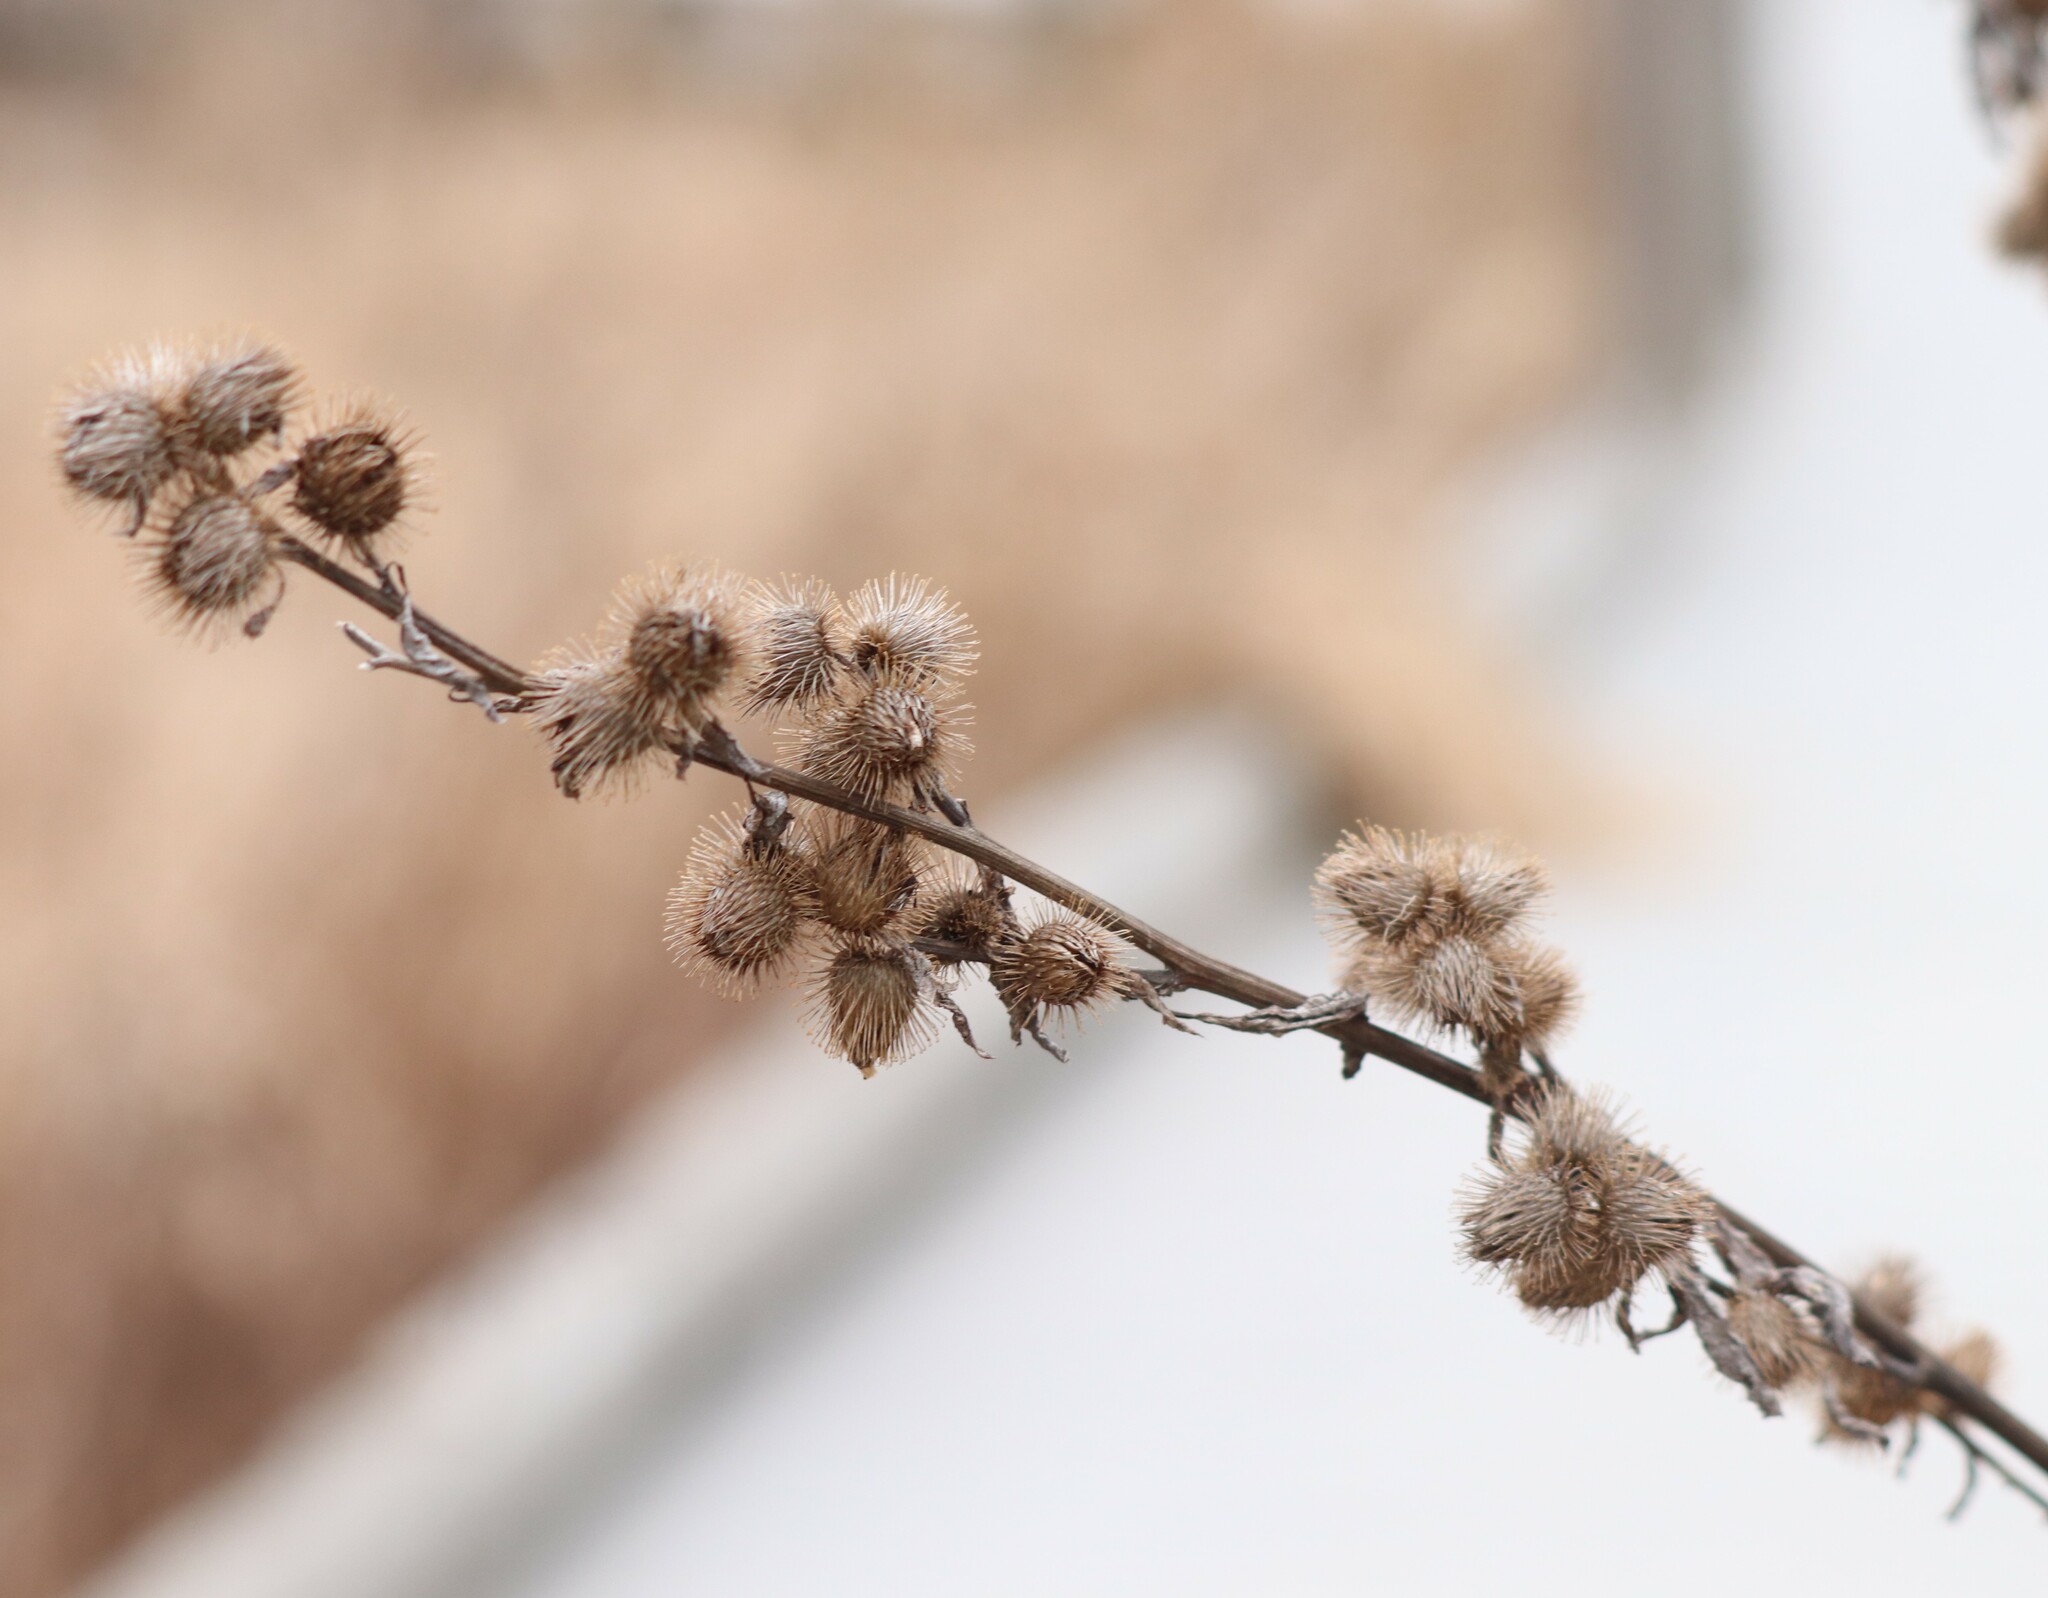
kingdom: Plantae
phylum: Tracheophyta
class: Magnoliopsida
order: Asterales
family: Asteraceae
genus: Arctium
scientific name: Arctium minus
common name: Lesser burdock
